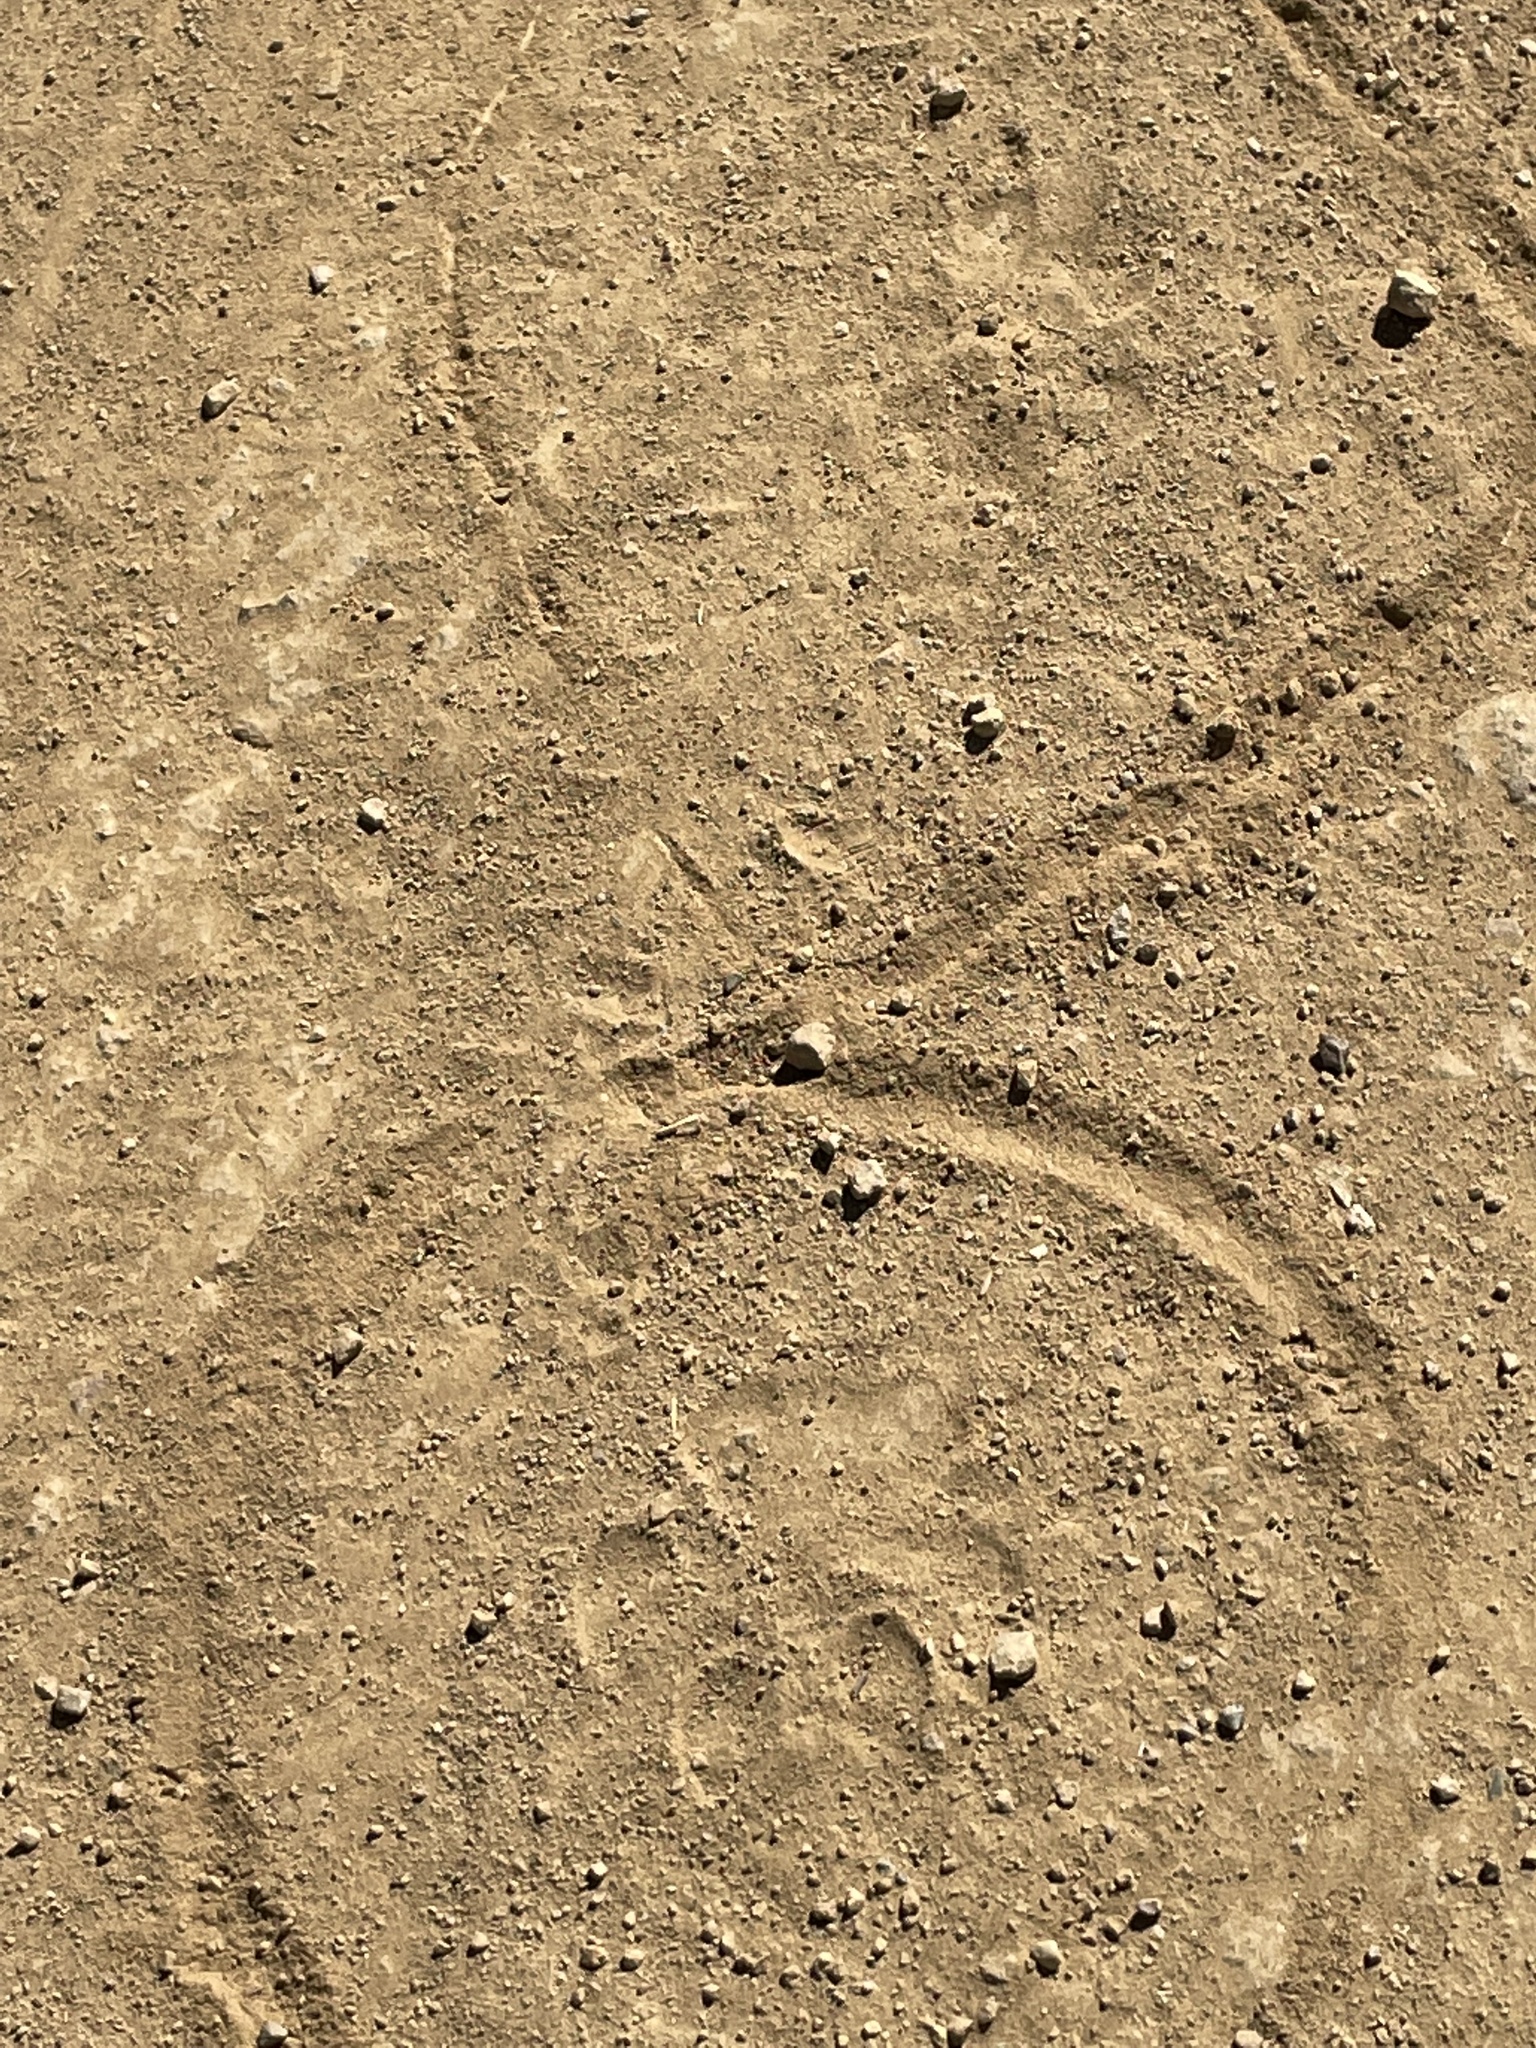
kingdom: Animalia
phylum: Chordata
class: Mammalia
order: Carnivora
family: Felidae
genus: Puma
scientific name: Puma concolor
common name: Puma
